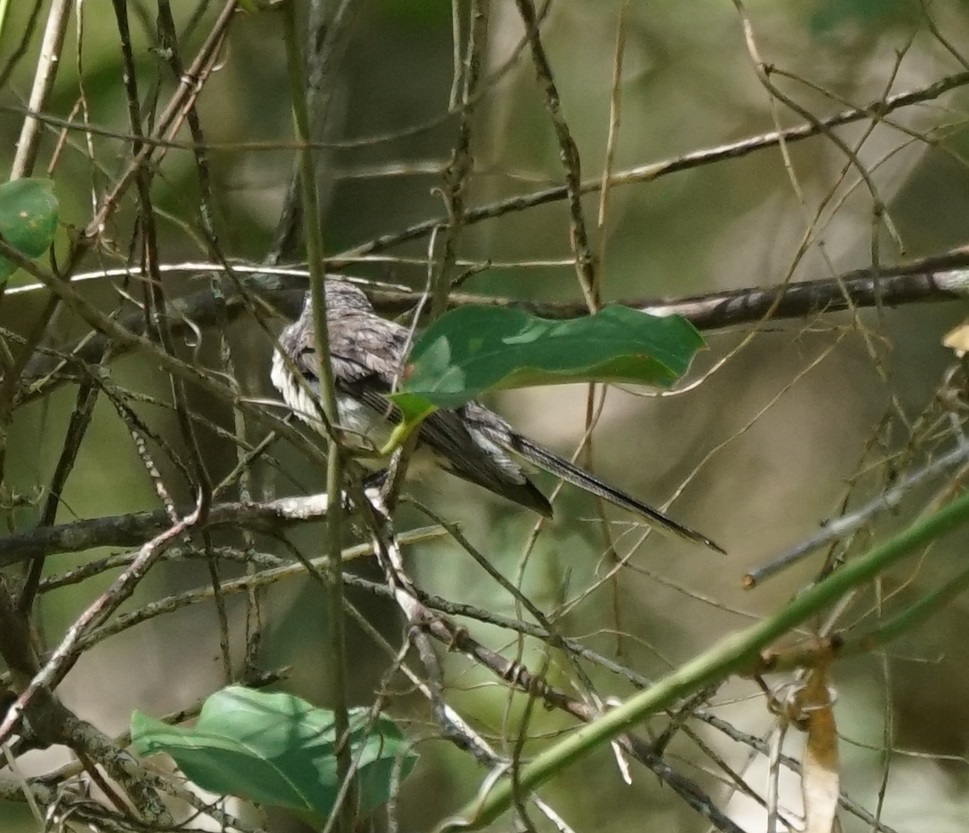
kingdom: Animalia
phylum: Chordata
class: Aves
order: Passeriformes
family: Rhipiduridae
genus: Rhipidura
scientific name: Rhipidura albiscapa
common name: Grey fantail
